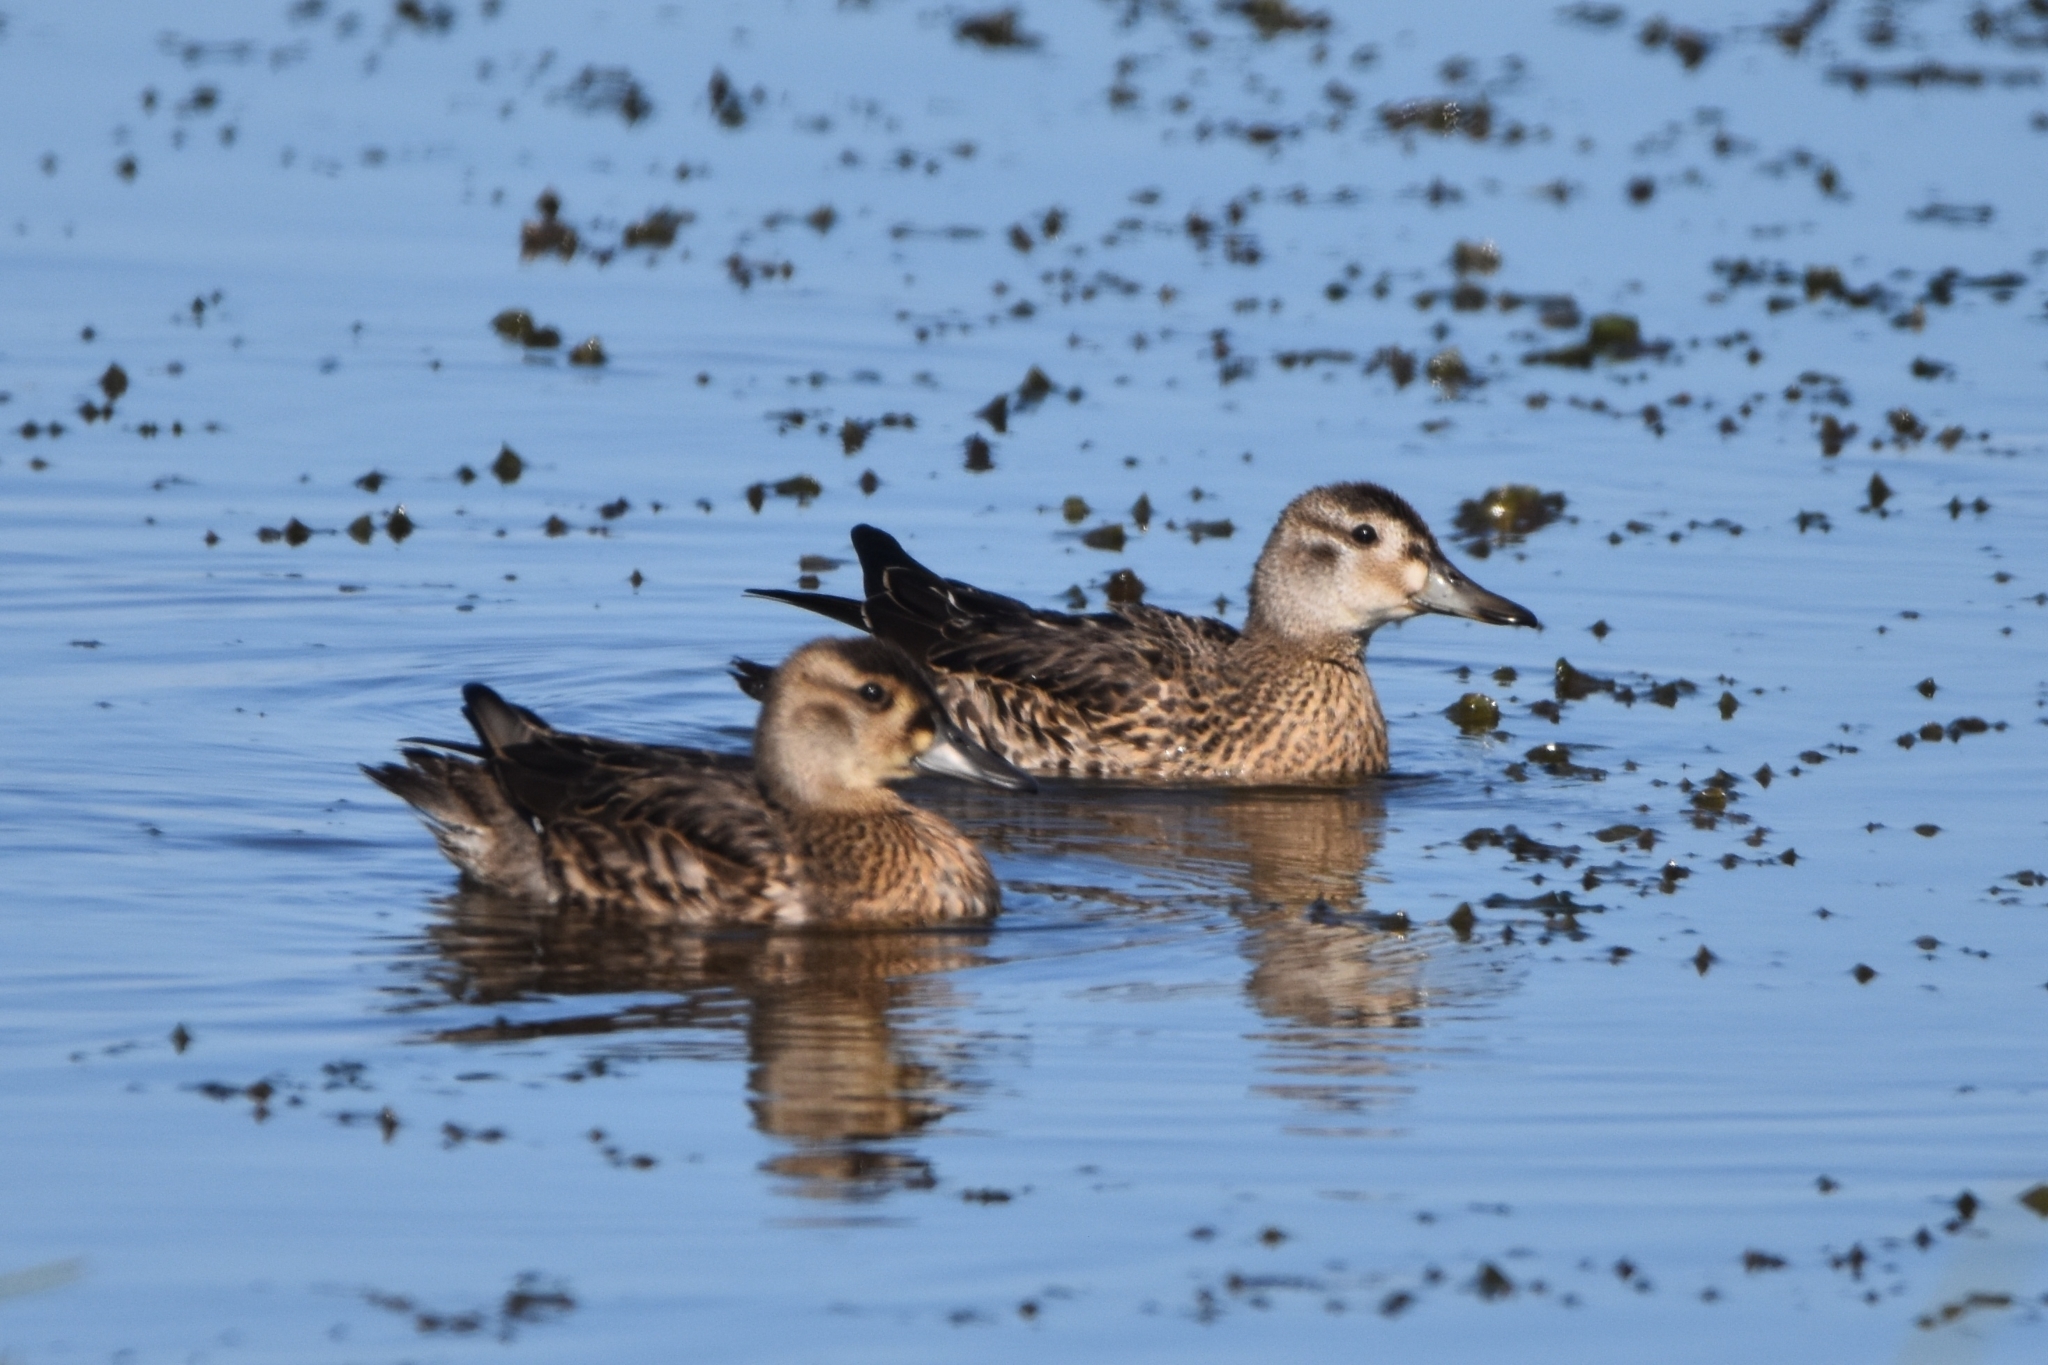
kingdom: Animalia
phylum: Chordata
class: Aves
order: Anseriformes
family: Anatidae
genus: Sibirionetta
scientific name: Sibirionetta formosa
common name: Baikal teal
